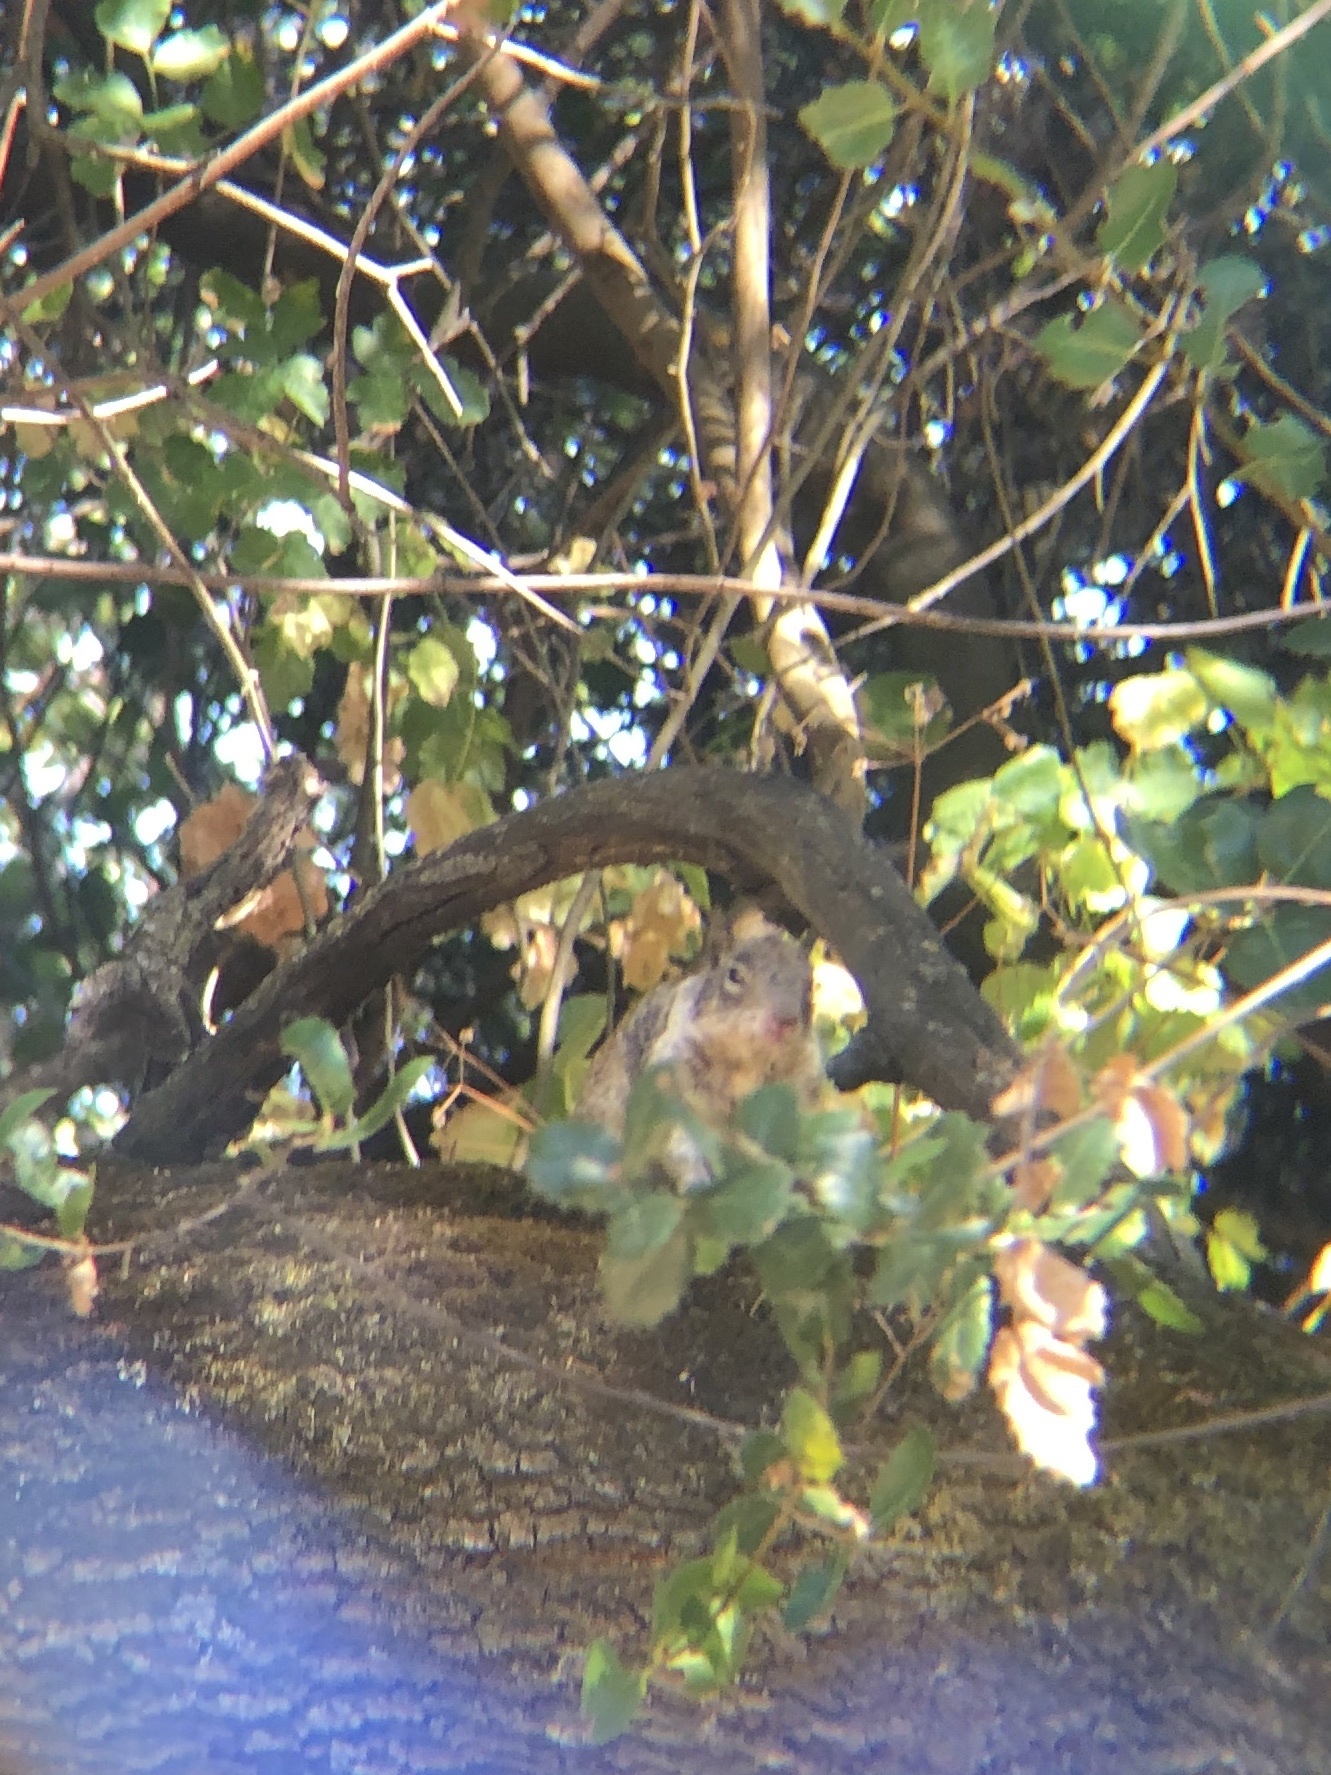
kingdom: Animalia
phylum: Chordata
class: Mammalia
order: Rodentia
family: Sciuridae
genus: Otospermophilus
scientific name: Otospermophilus beecheyi
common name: California ground squirrel
